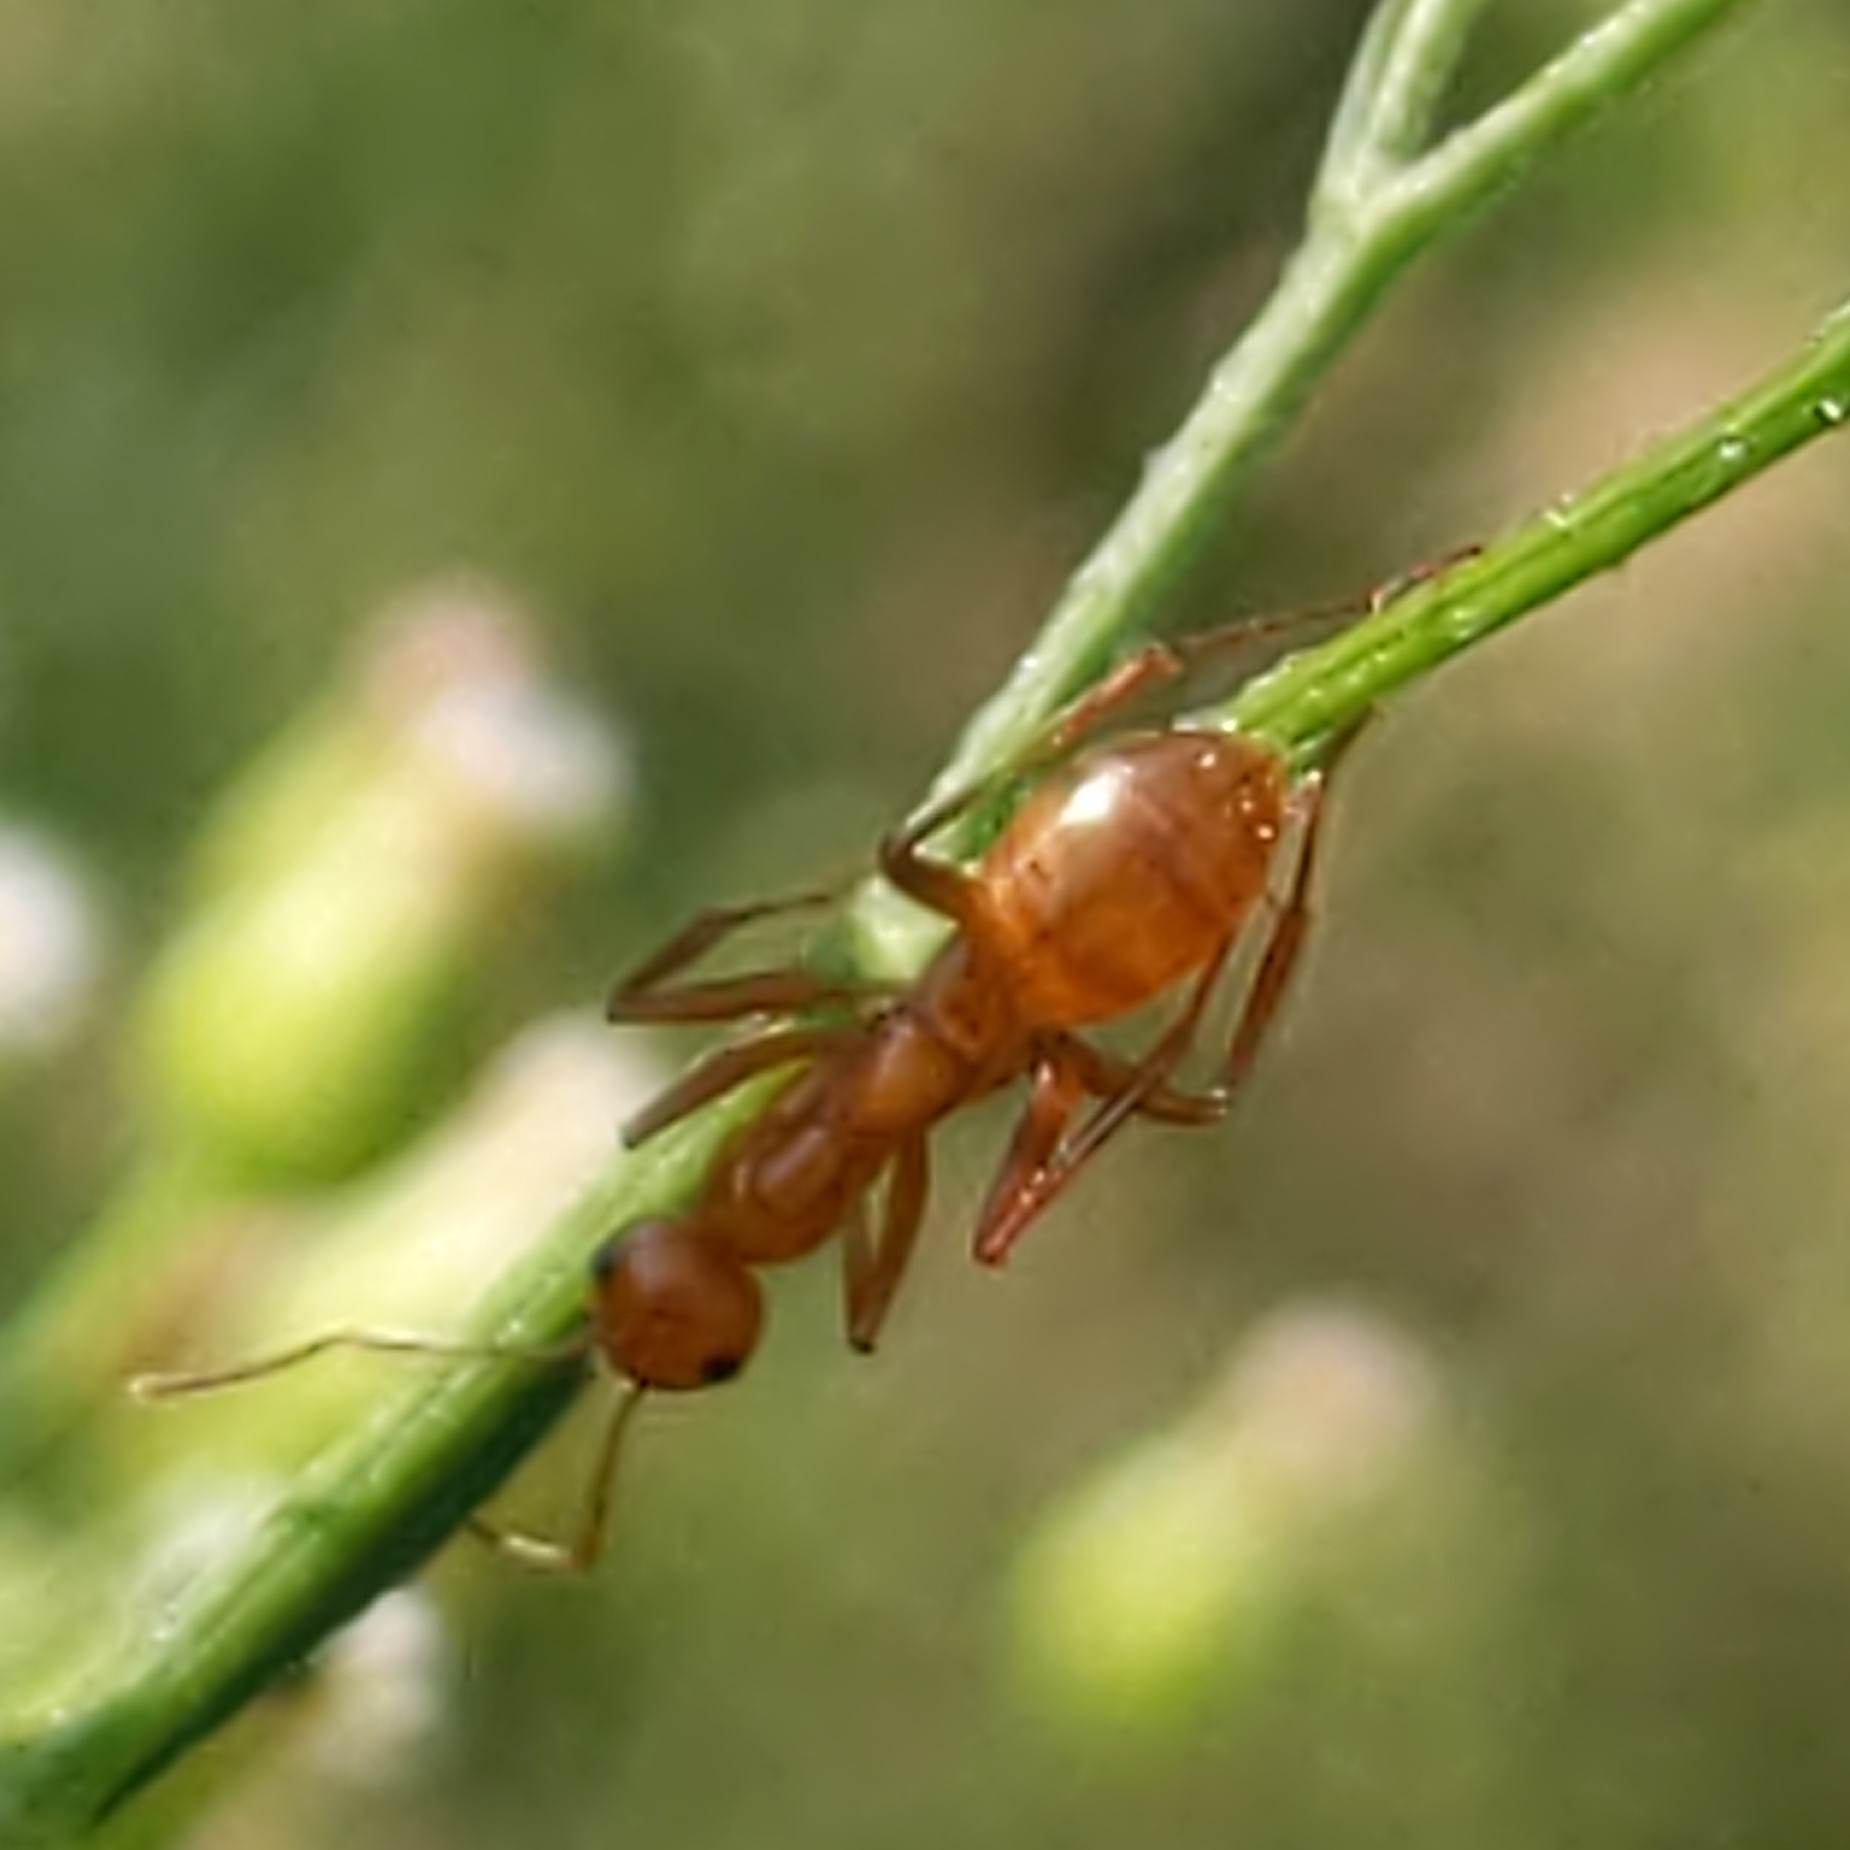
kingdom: Animalia
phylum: Arthropoda
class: Insecta
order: Hymenoptera
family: Formicidae
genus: Formica
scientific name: Formica
